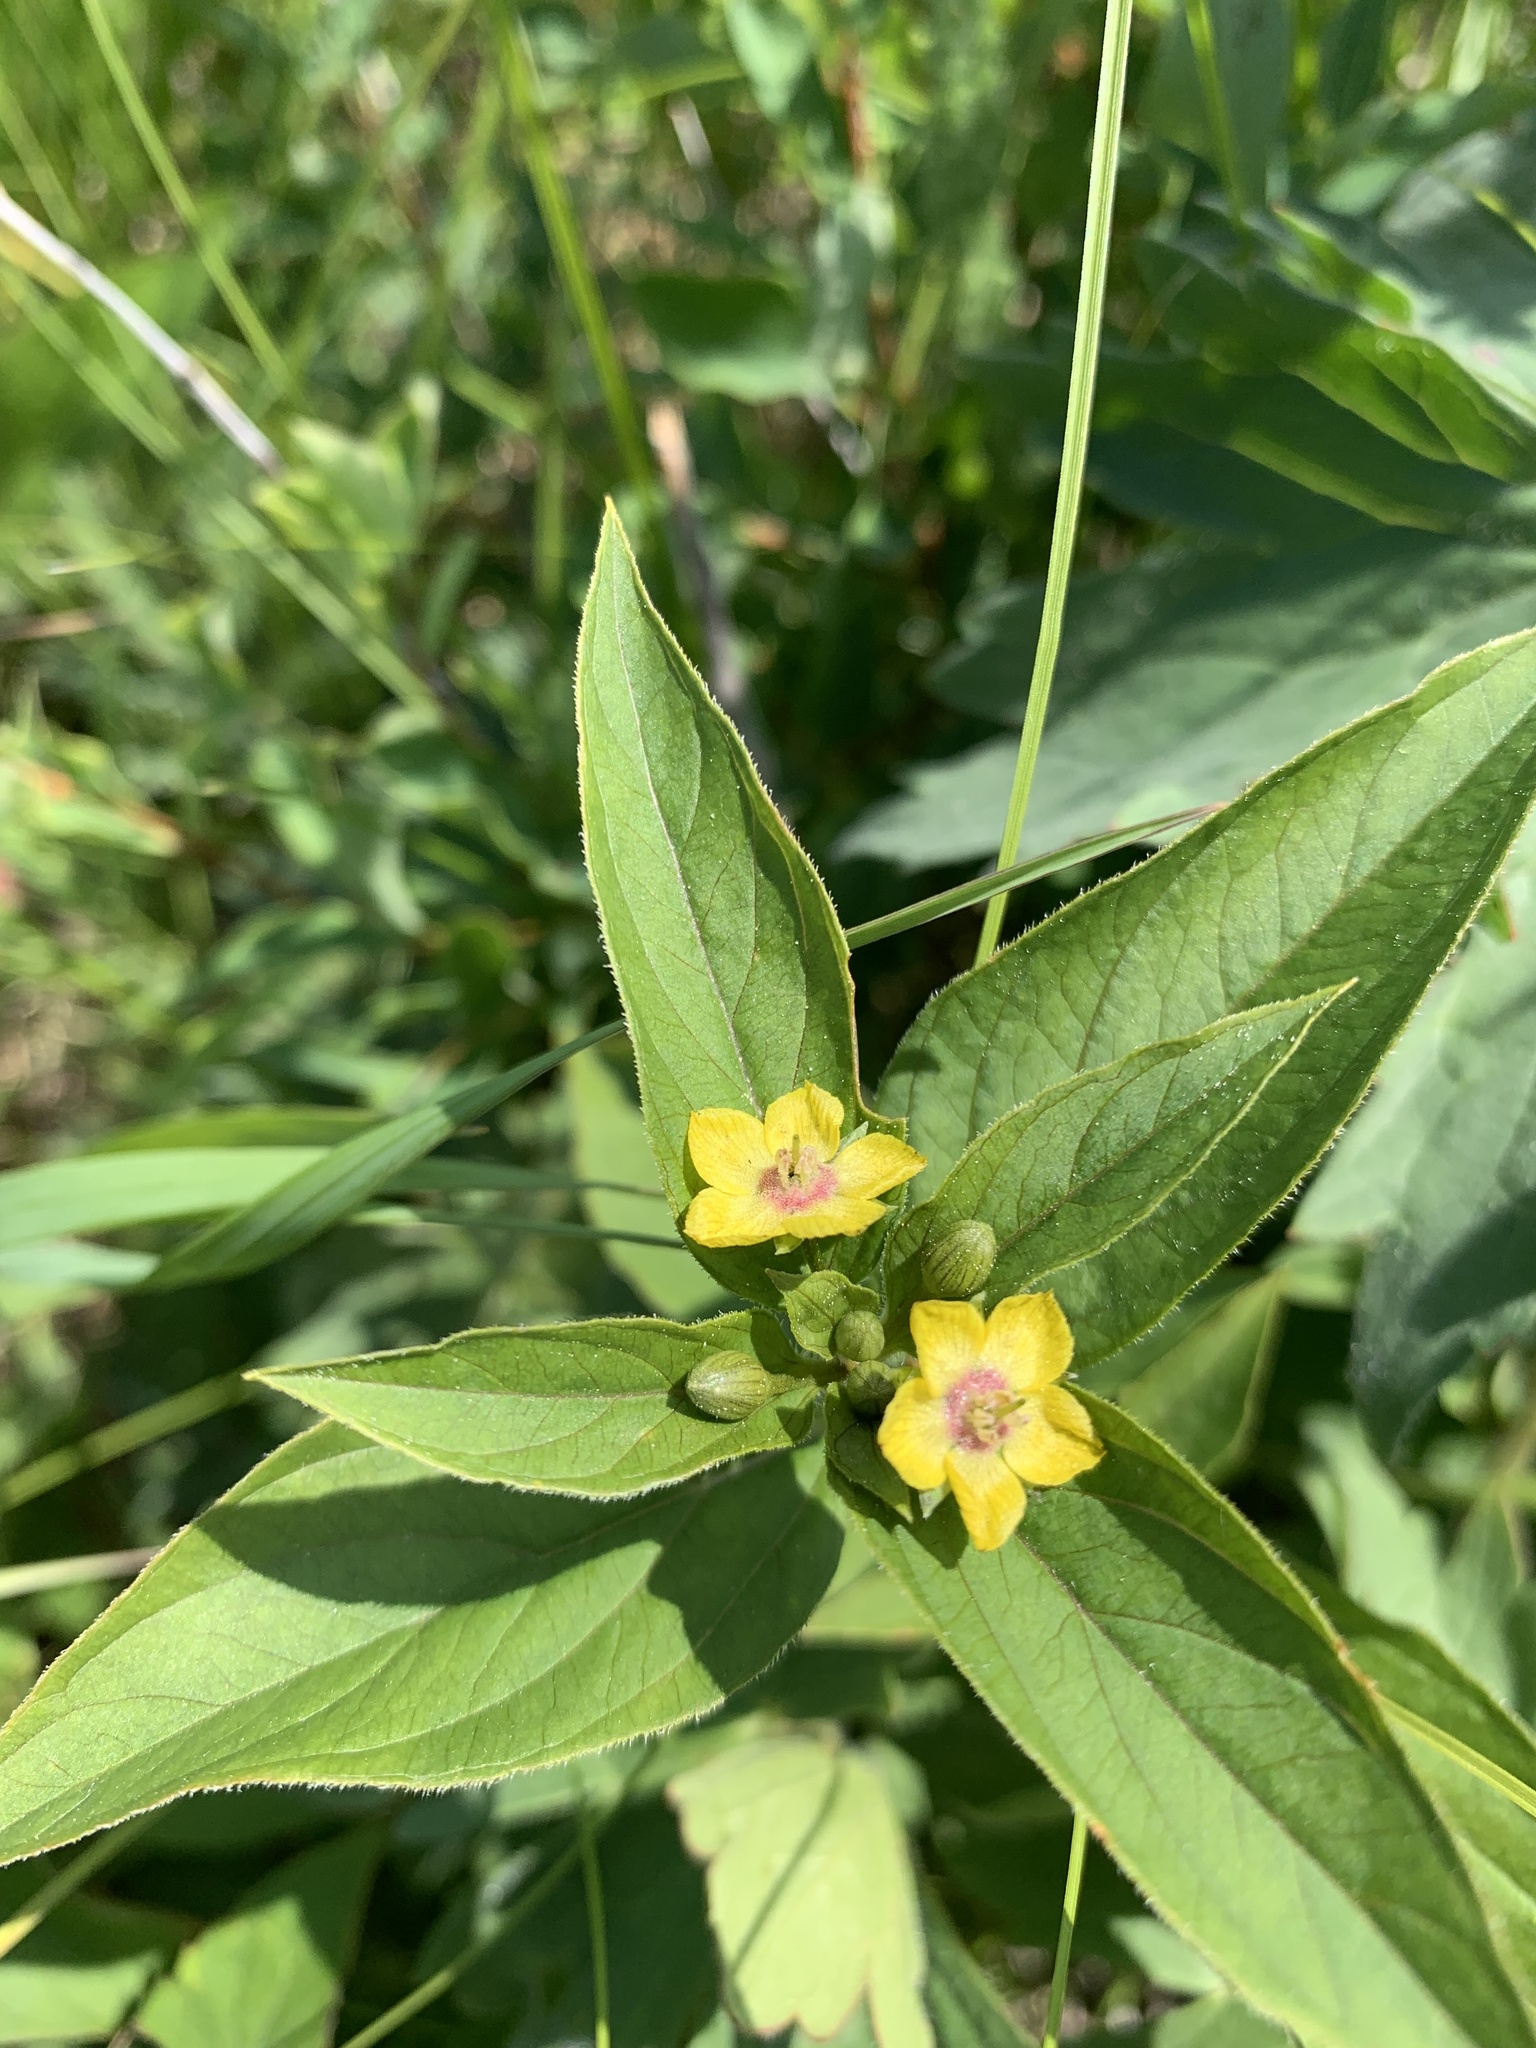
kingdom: Plantae
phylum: Tracheophyta
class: Magnoliopsida
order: Ericales
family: Primulaceae
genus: Lysimachia
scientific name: Lysimachia ciliata
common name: Fringed loosestrife
